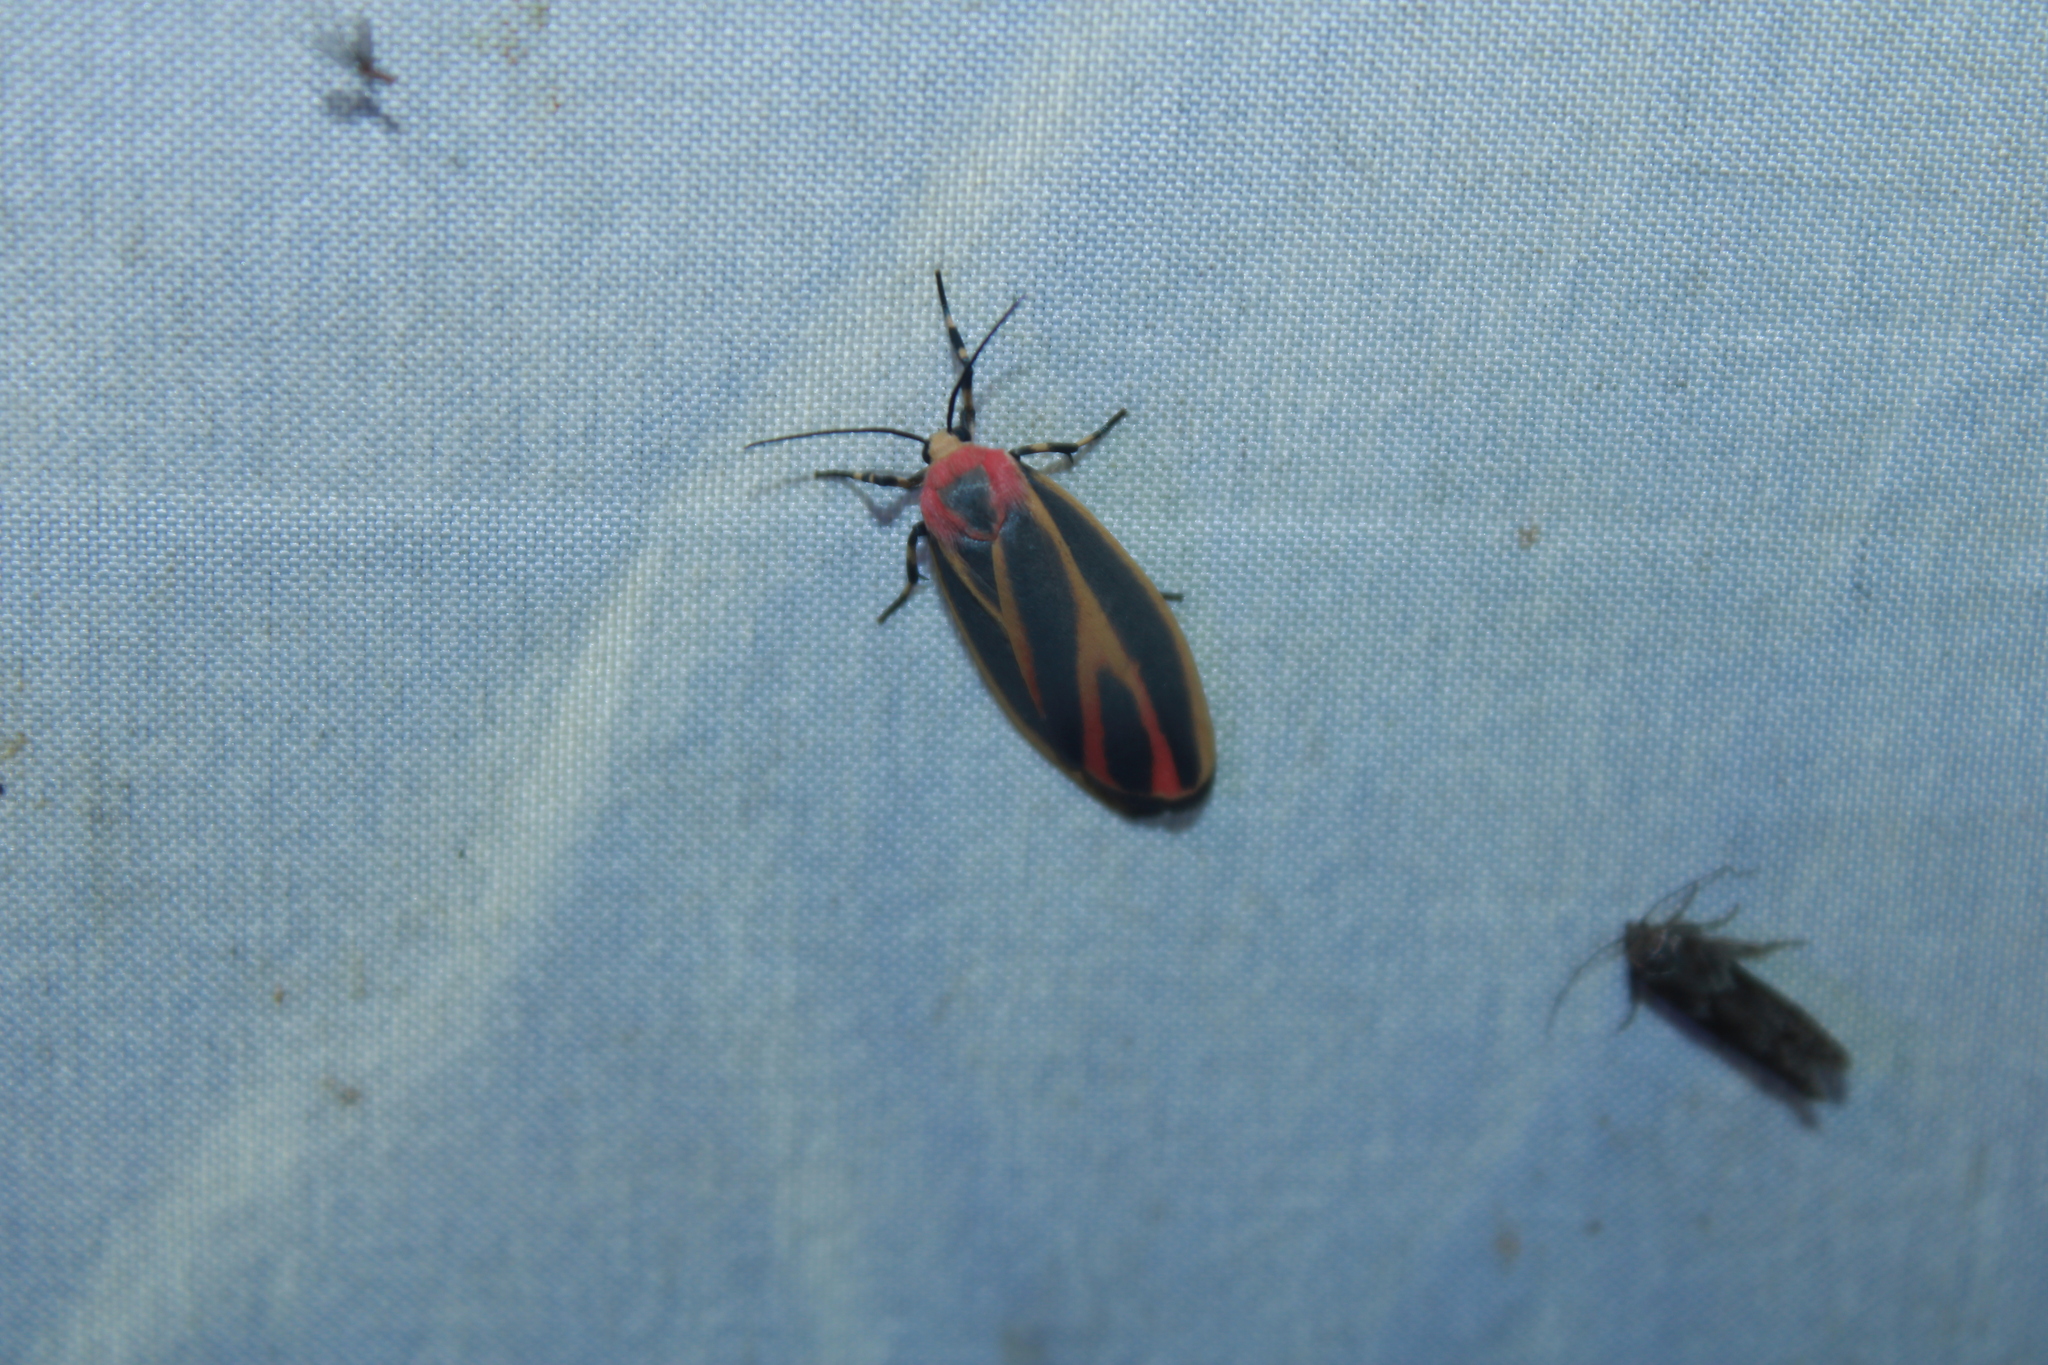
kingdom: Animalia
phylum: Arthropoda
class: Insecta
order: Lepidoptera
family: Erebidae
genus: Hypoprepia
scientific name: Hypoprepia fucosa
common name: Painted lichen moth
